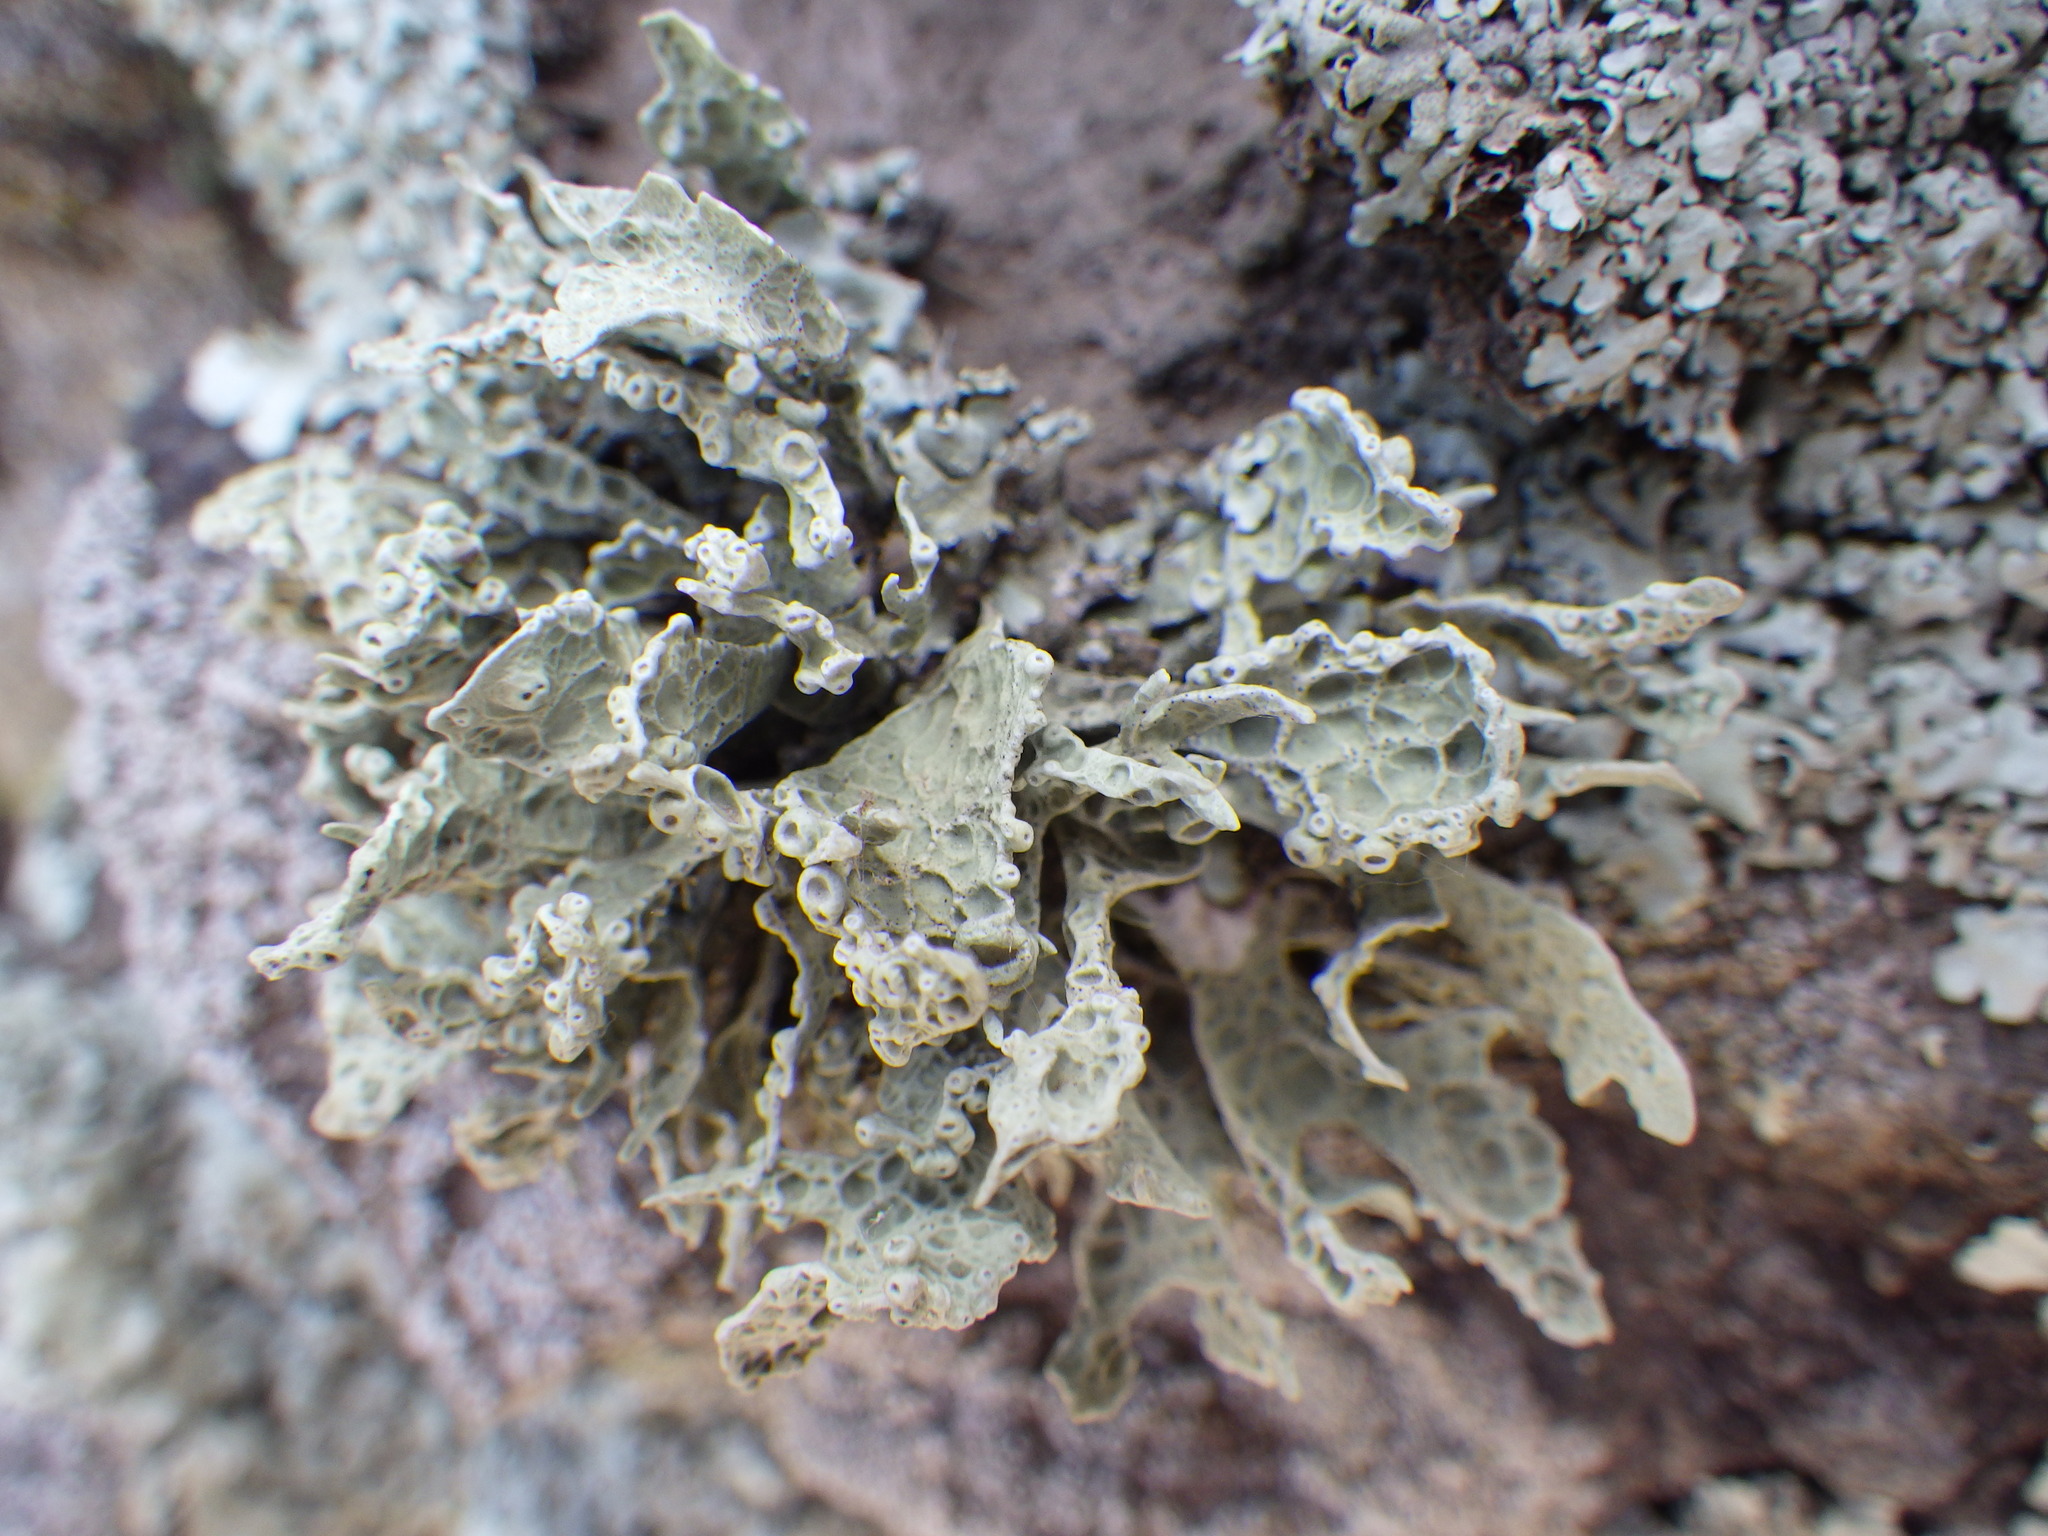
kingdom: Fungi
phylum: Ascomycota
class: Lecanoromycetes
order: Lecanorales
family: Ramalinaceae
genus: Niebla
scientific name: Niebla homalea
